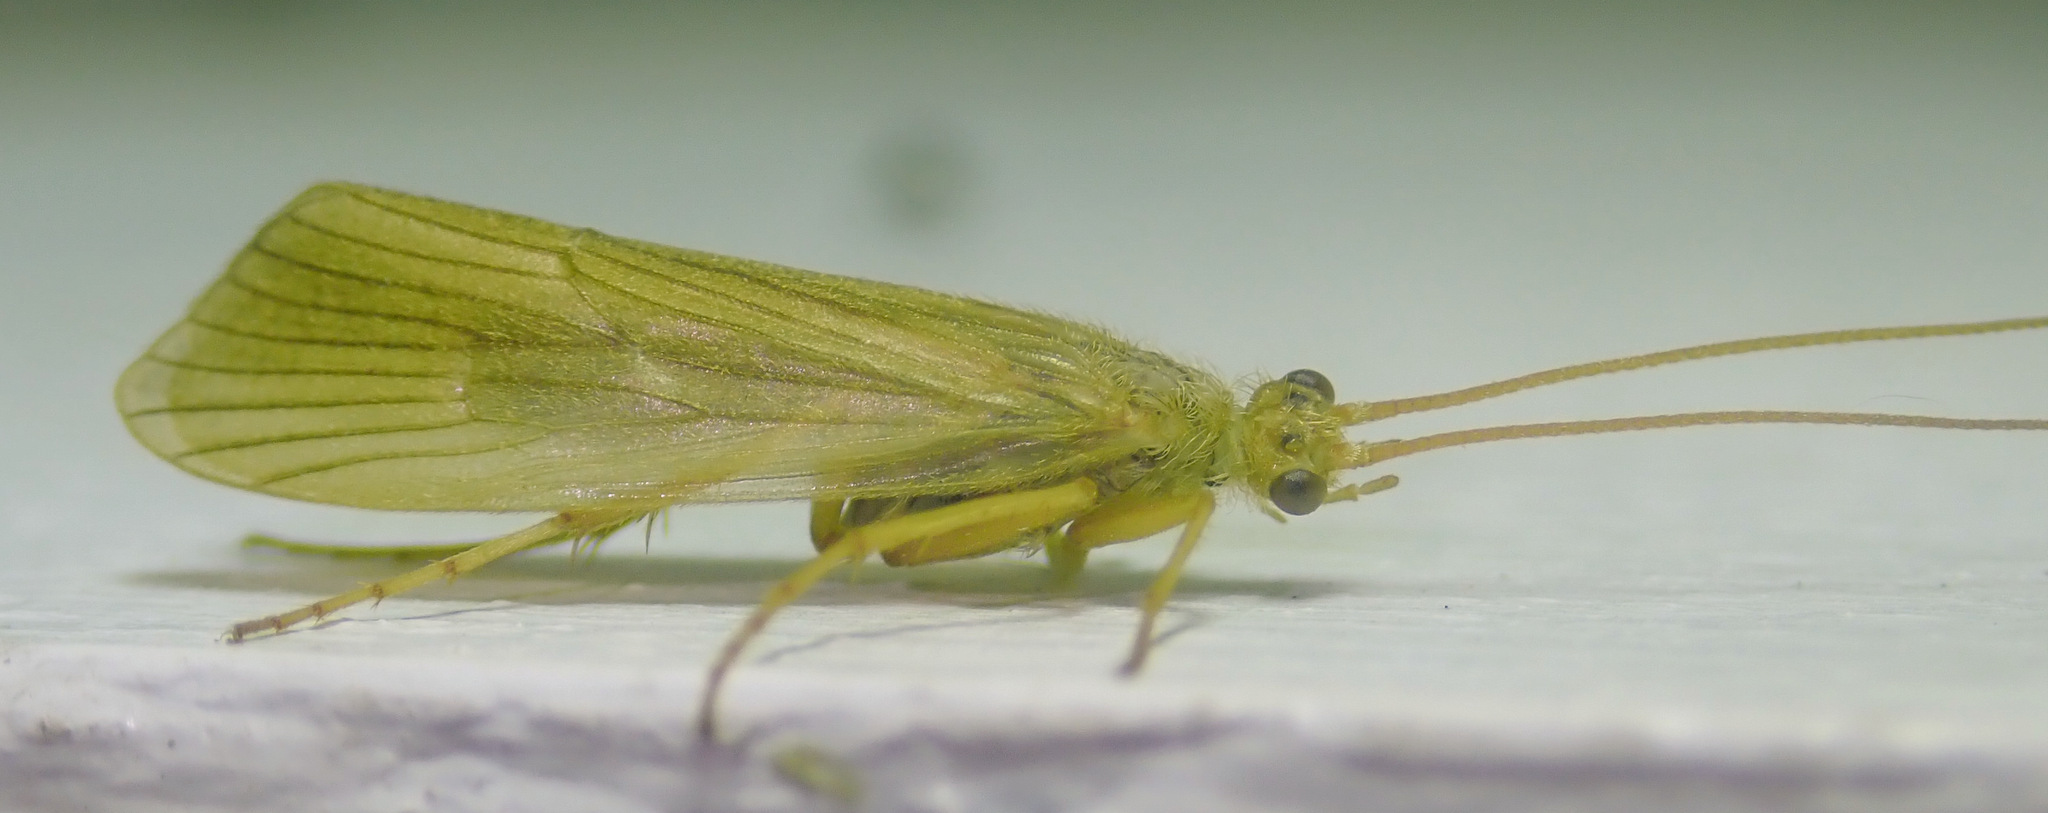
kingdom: Animalia
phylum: Arthropoda
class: Insecta
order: Trichoptera
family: Phryganeidae
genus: Agrypnia
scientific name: Agrypnia pagetana
